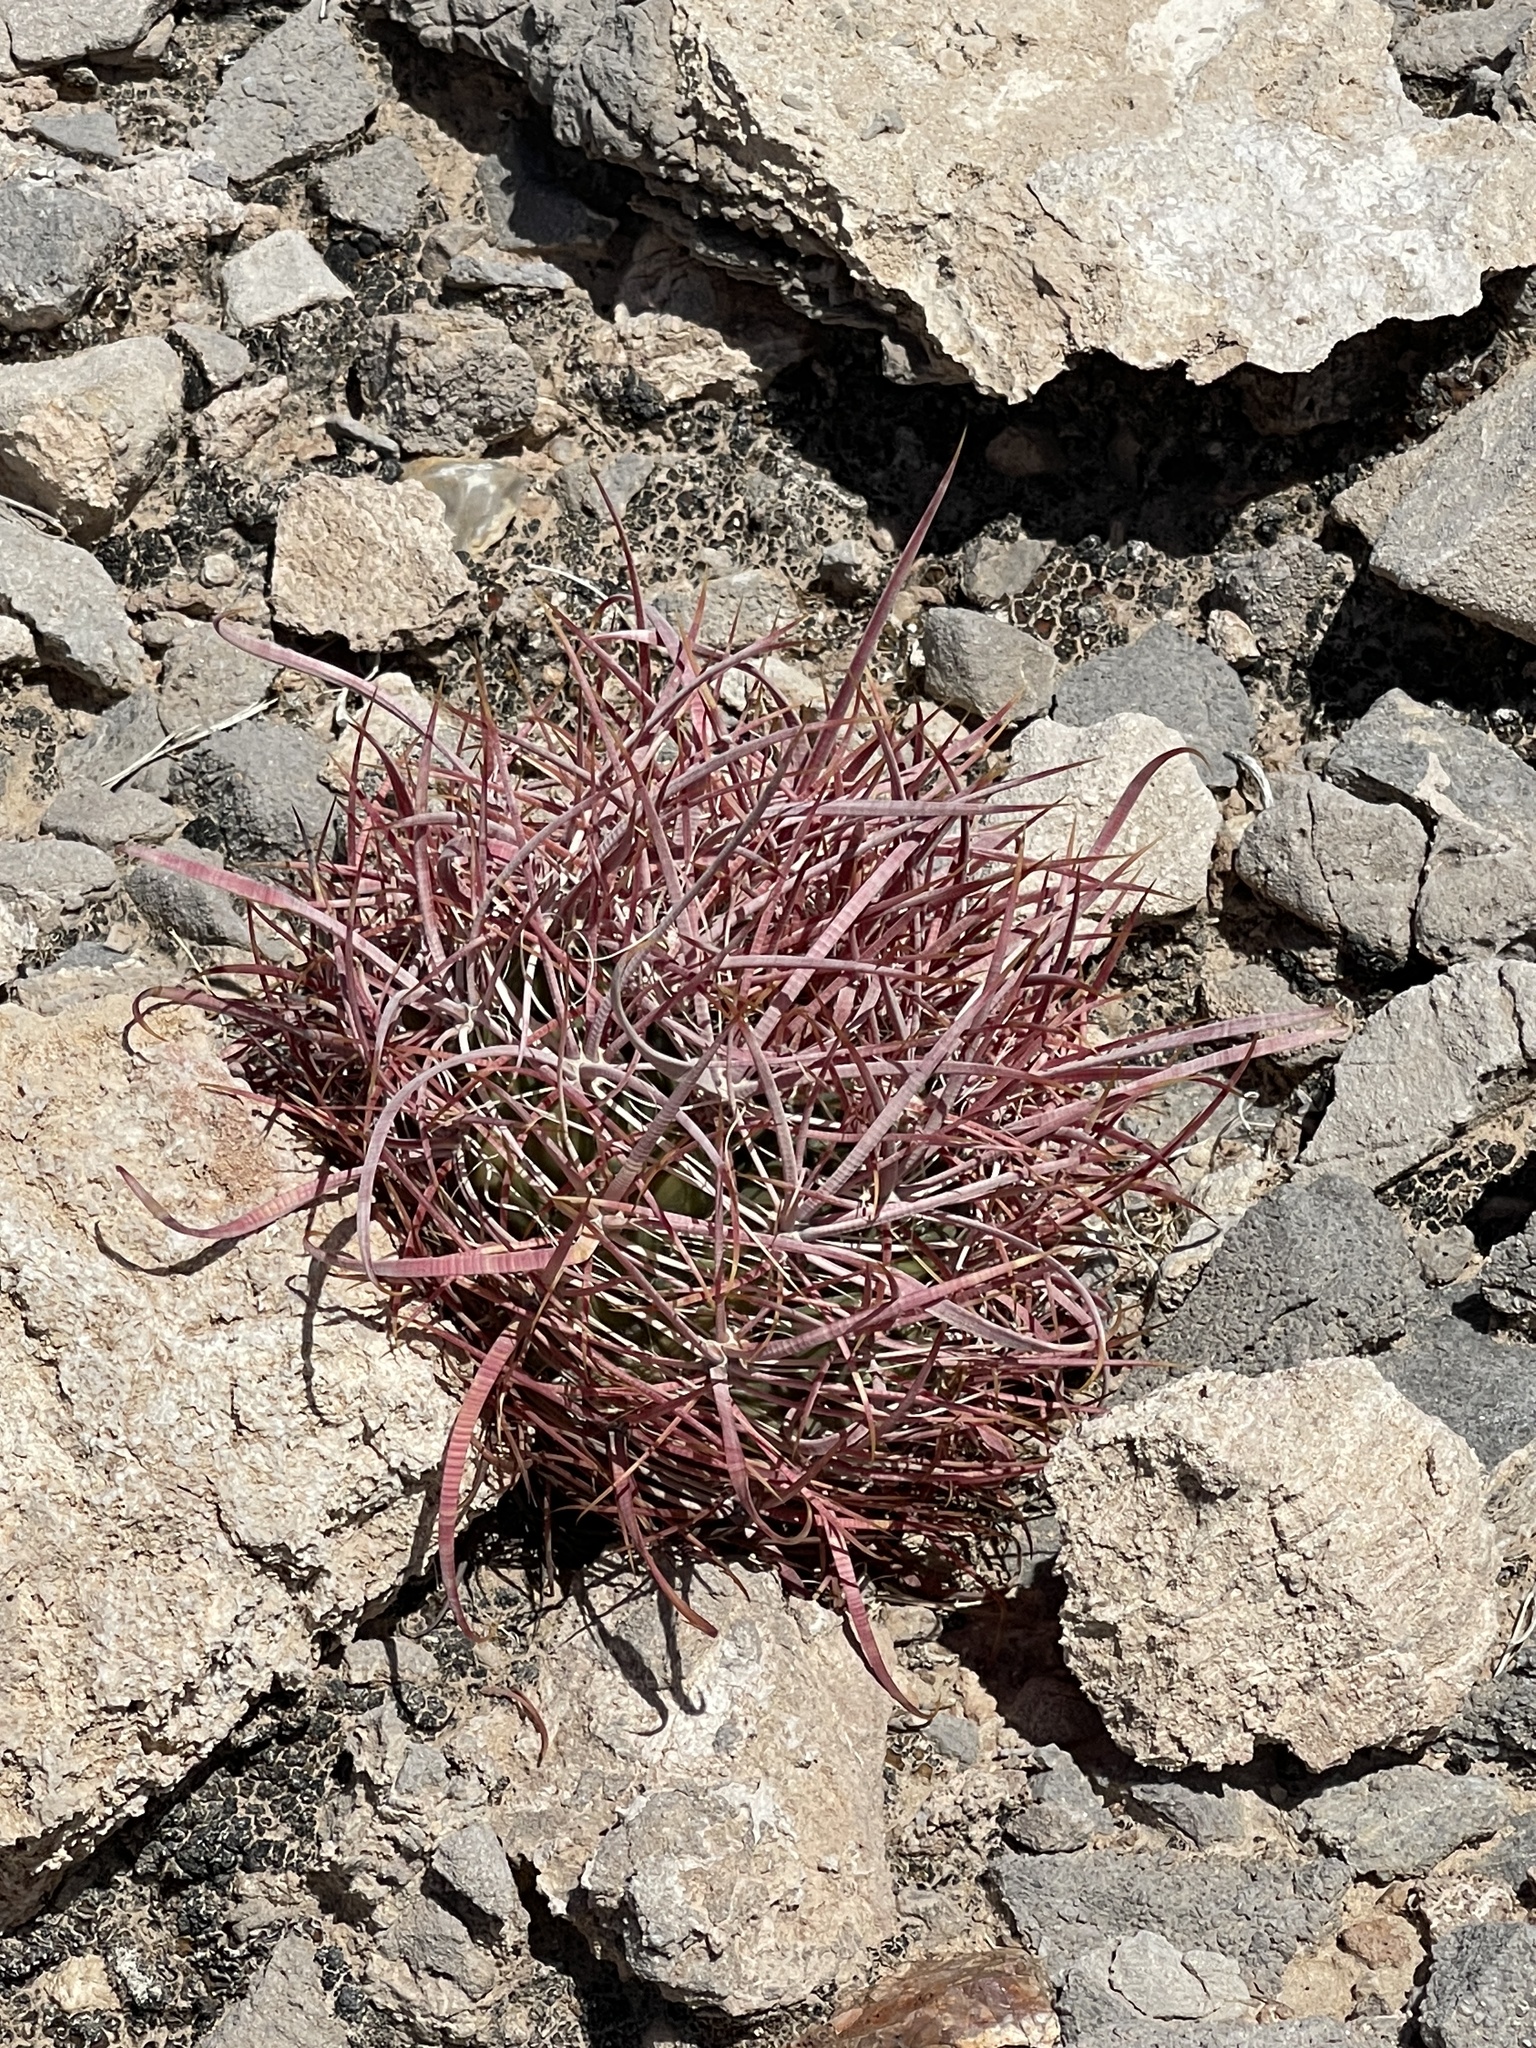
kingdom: Plantae
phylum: Tracheophyta
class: Magnoliopsida
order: Caryophyllales
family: Cactaceae
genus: Ferocactus
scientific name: Ferocactus cylindraceus
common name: California barrel cactus
